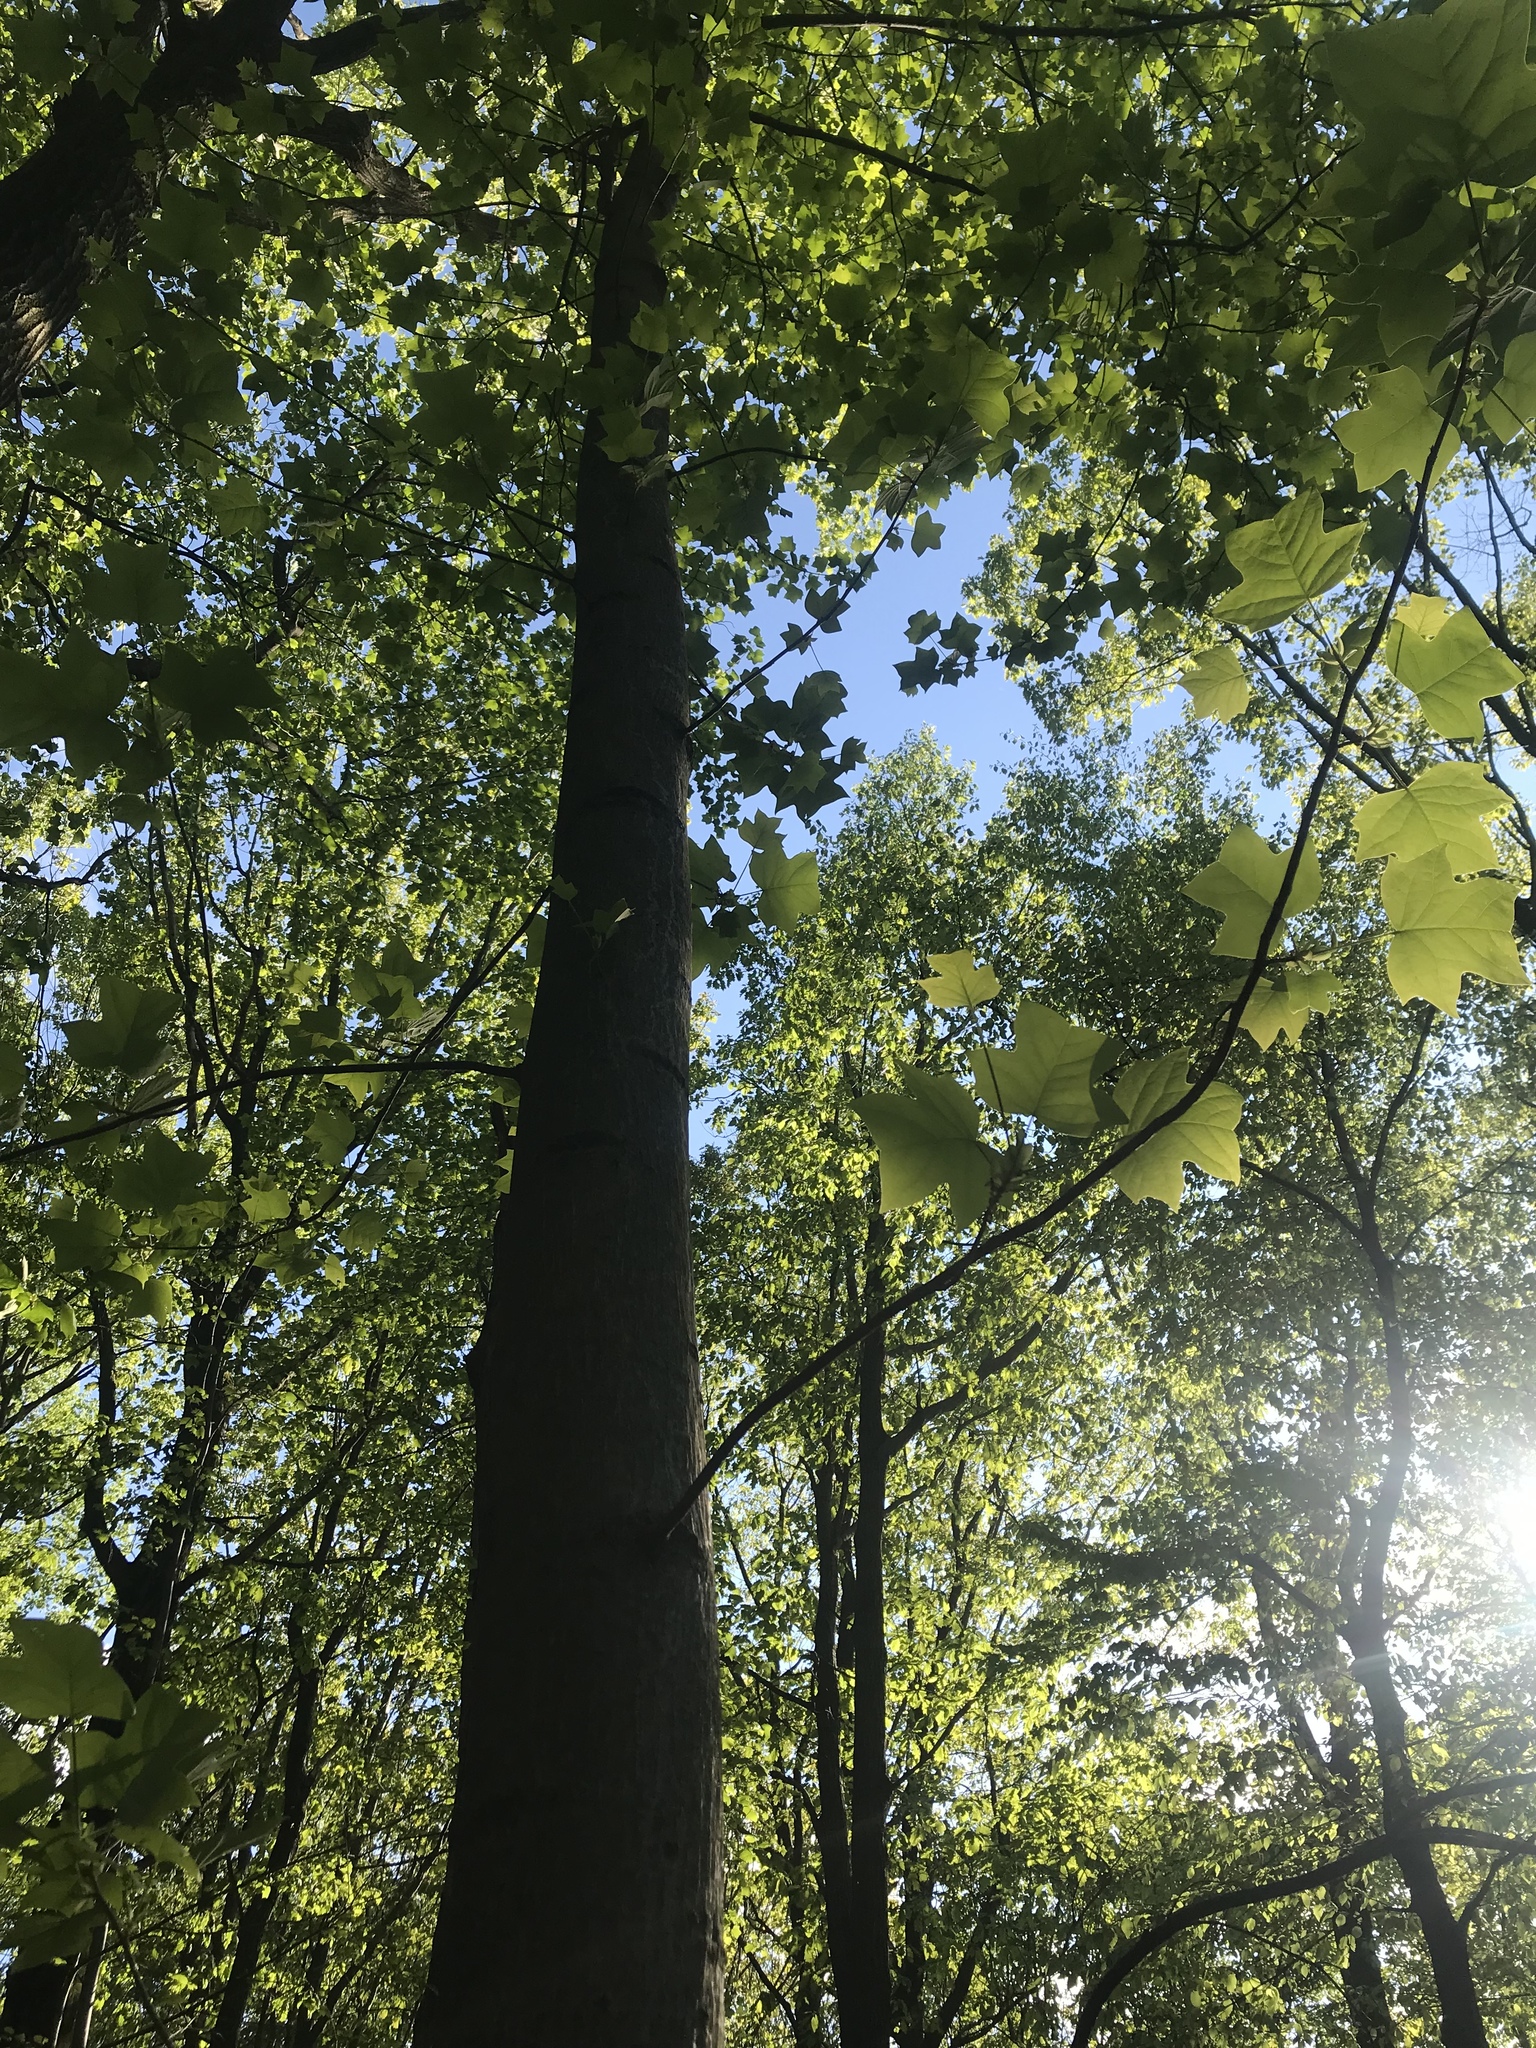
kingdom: Plantae
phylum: Tracheophyta
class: Magnoliopsida
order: Magnoliales
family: Magnoliaceae
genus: Liriodendron
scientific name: Liriodendron tulipifera
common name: Tulip tree
